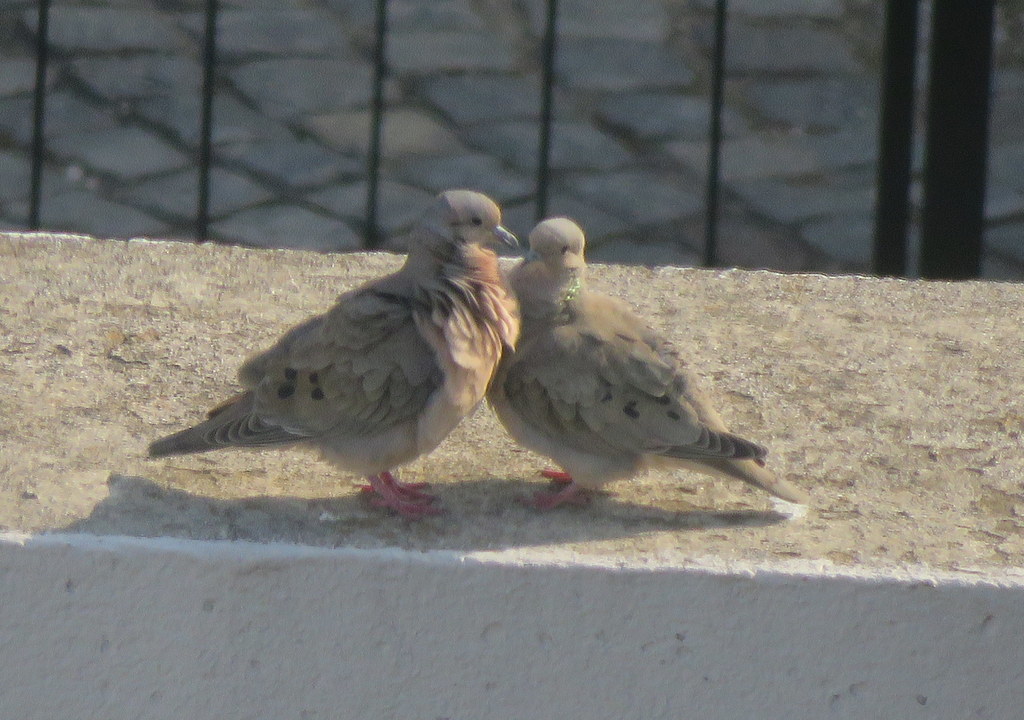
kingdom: Animalia
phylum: Chordata
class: Aves
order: Columbiformes
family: Columbidae
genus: Zenaida
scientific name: Zenaida auriculata
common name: Eared dove
